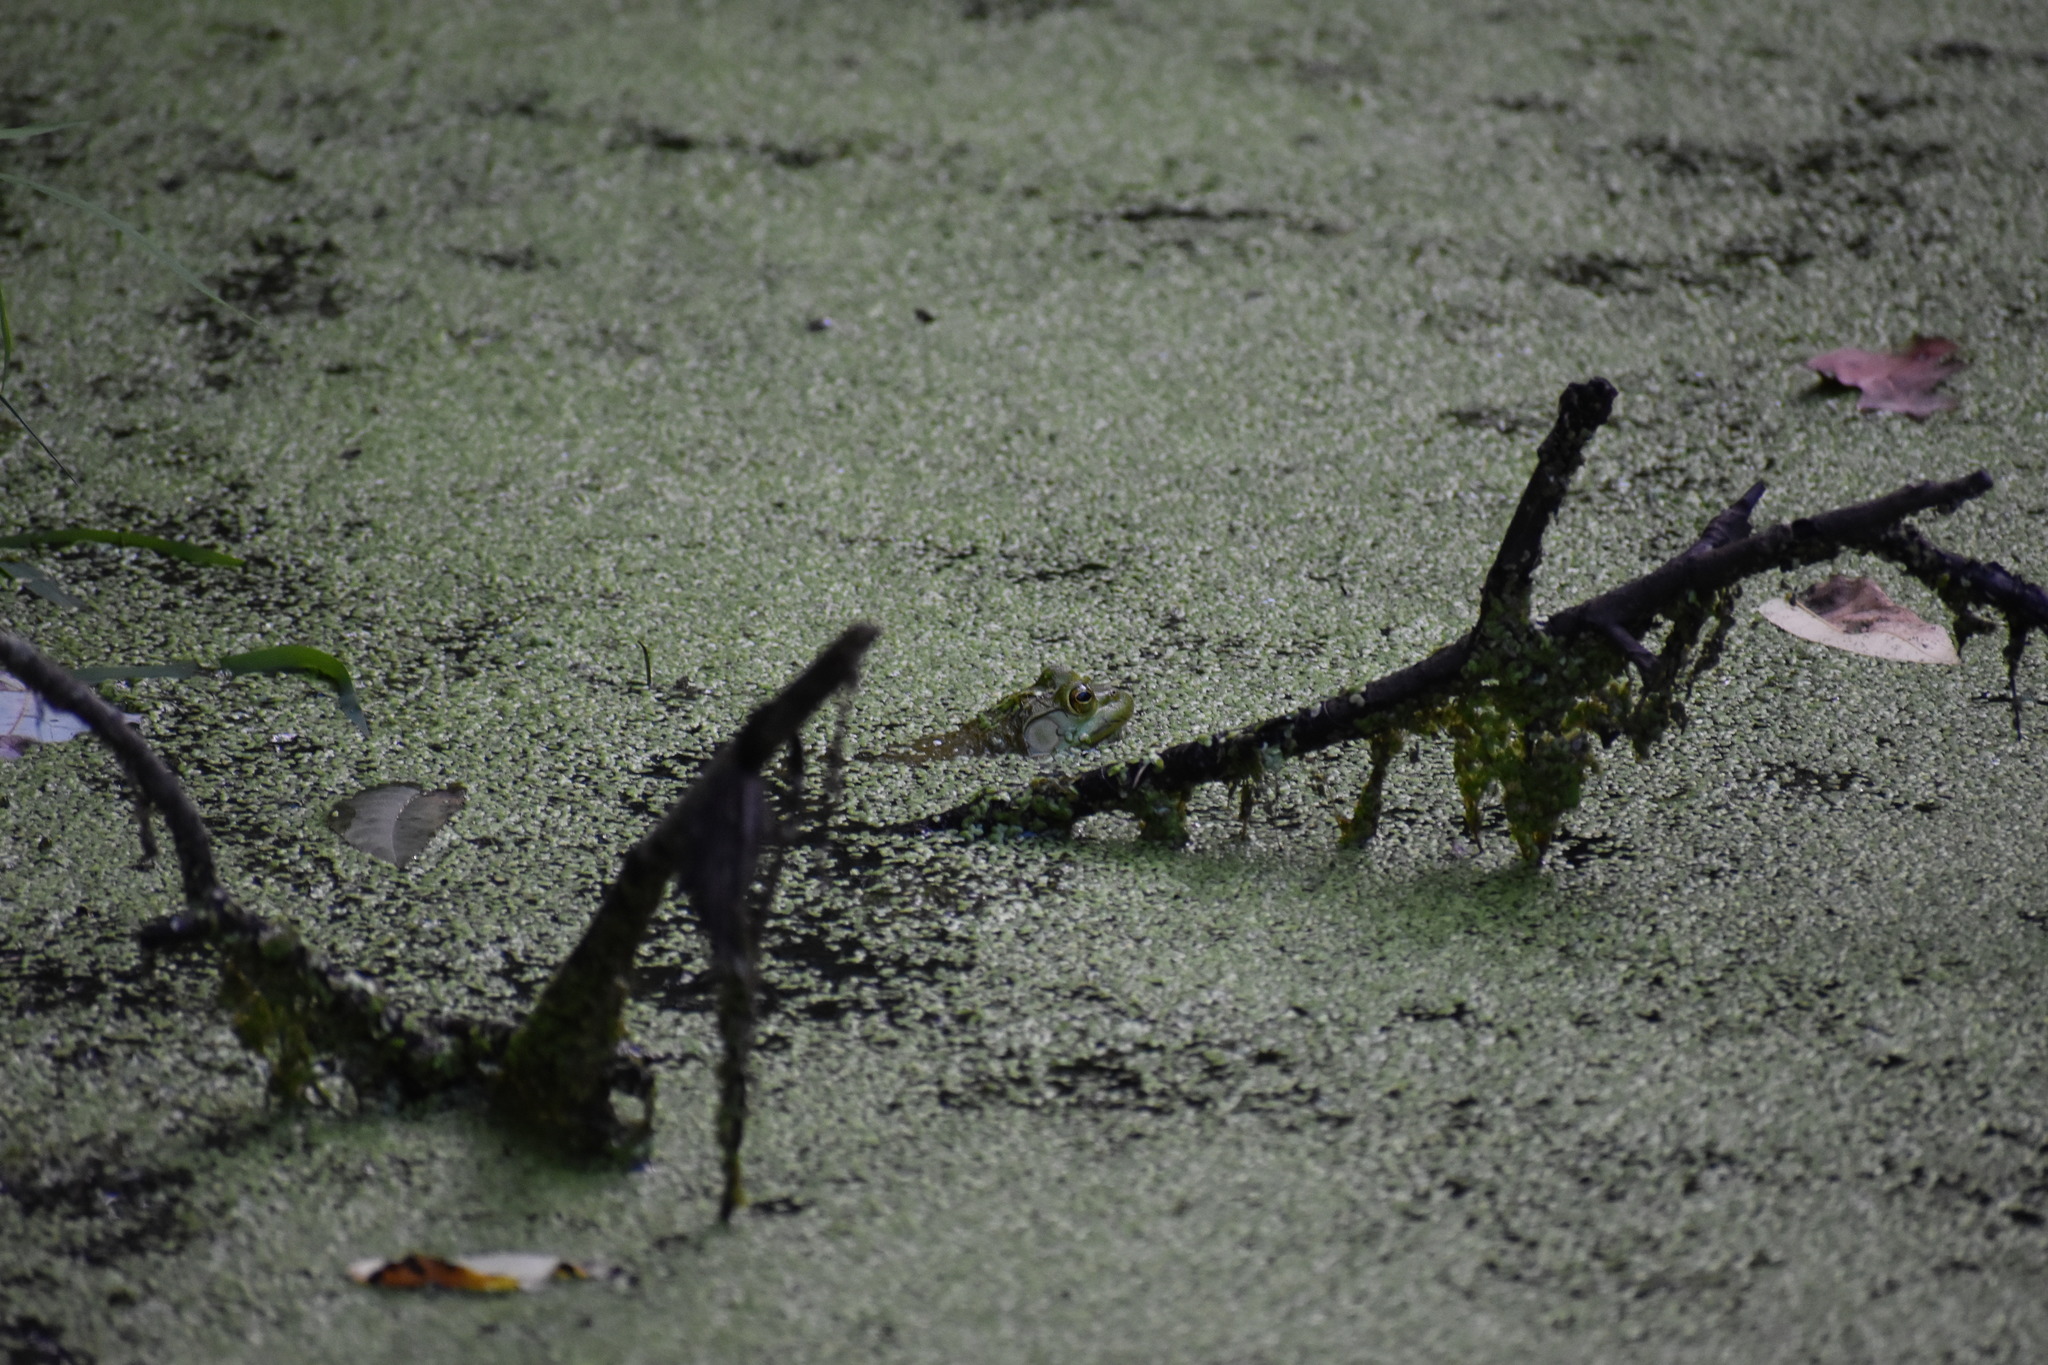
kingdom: Animalia
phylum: Chordata
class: Amphibia
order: Anura
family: Ranidae
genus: Lithobates
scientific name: Lithobates catesbeianus
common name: American bullfrog
